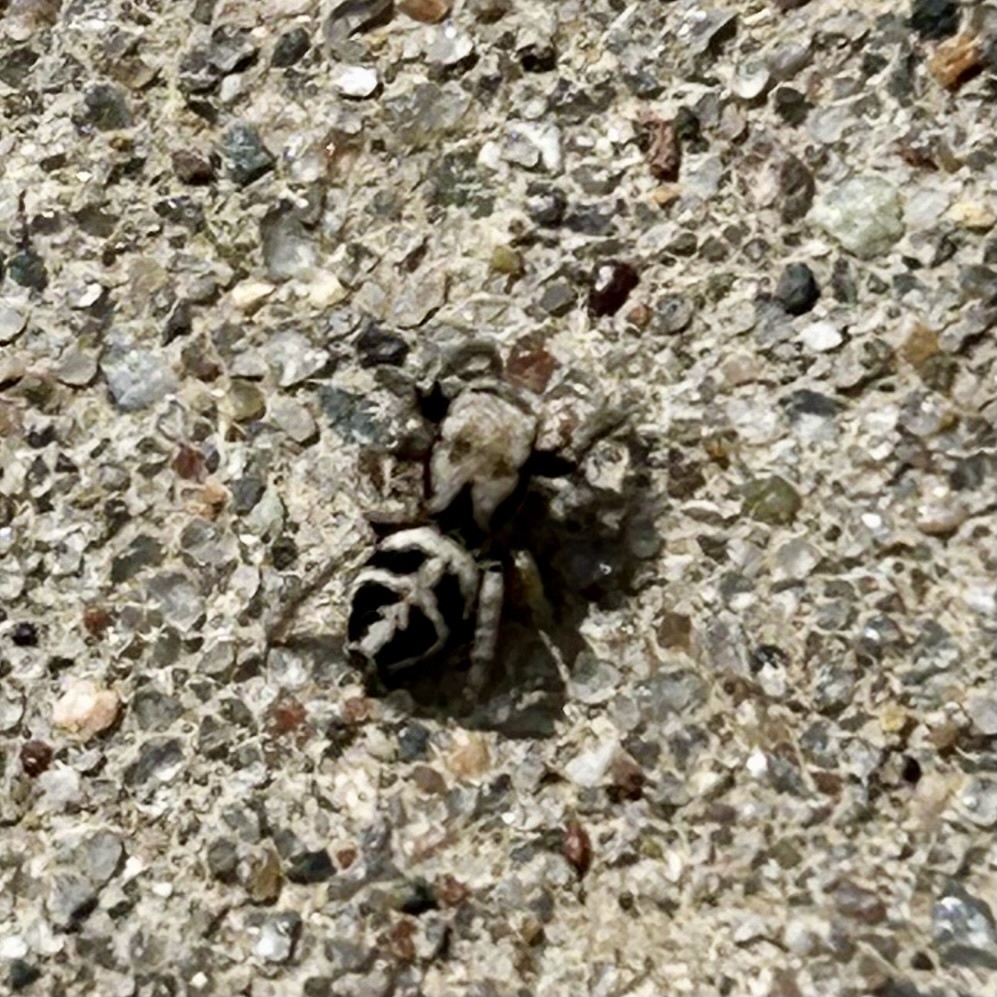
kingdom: Animalia
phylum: Arthropoda
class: Arachnida
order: Araneae
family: Salticidae
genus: Habronattus
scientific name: Habronattus klauseri
